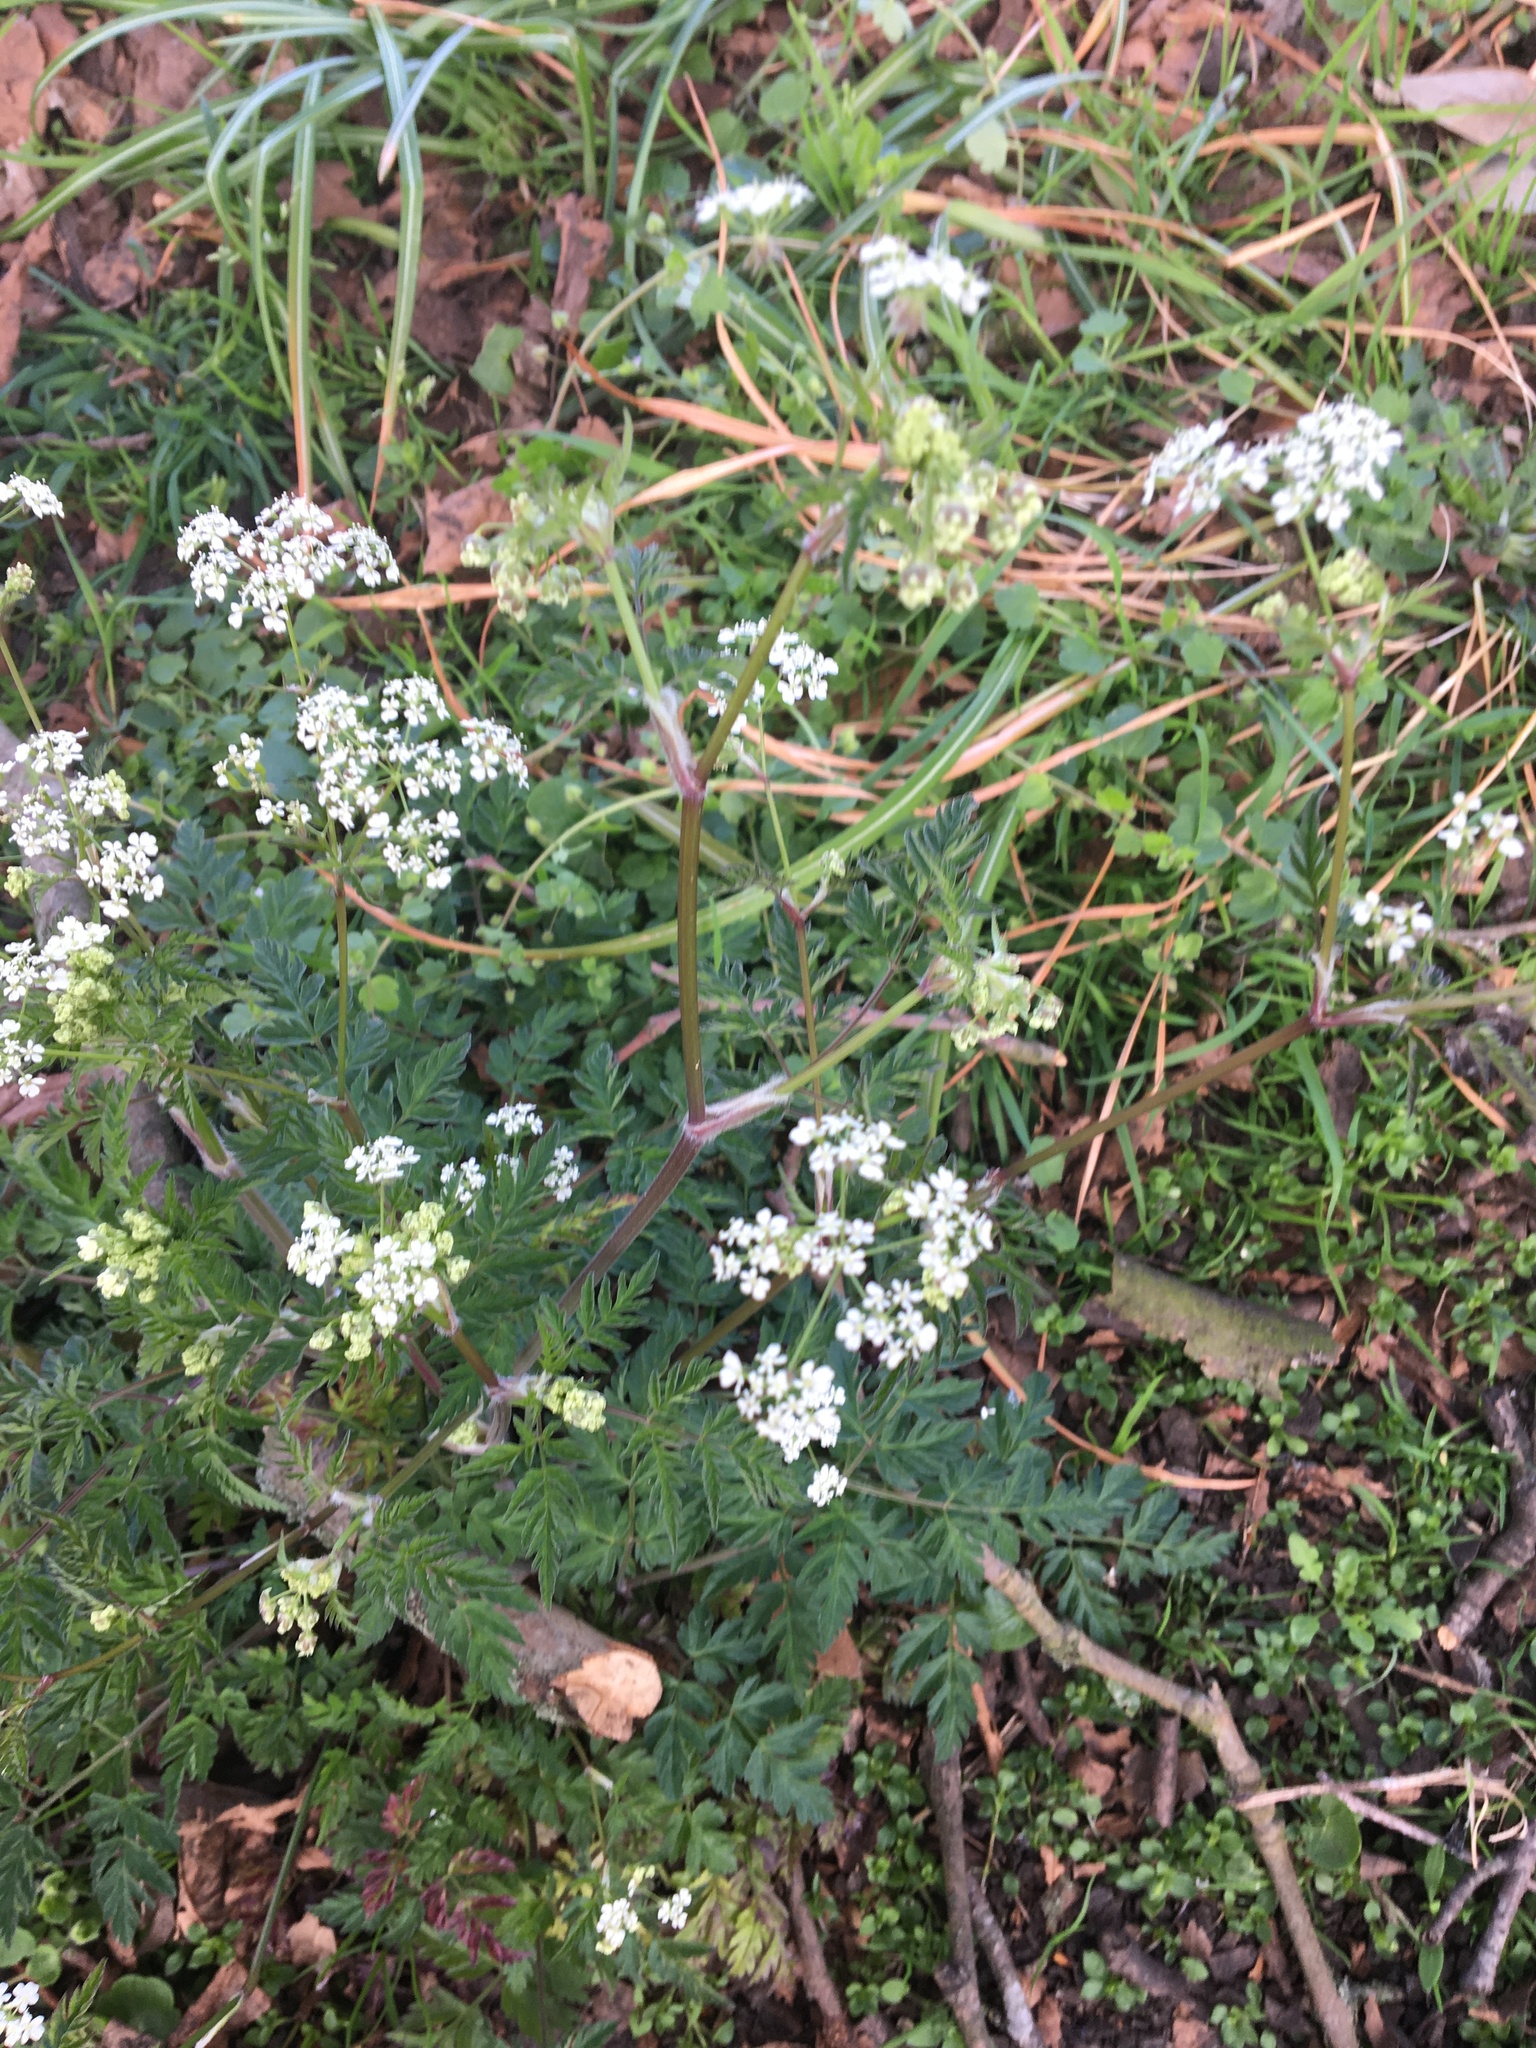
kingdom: Plantae
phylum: Tracheophyta
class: Magnoliopsida
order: Apiales
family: Apiaceae
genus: Anthriscus
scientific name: Anthriscus sylvestris
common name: Cow parsley
